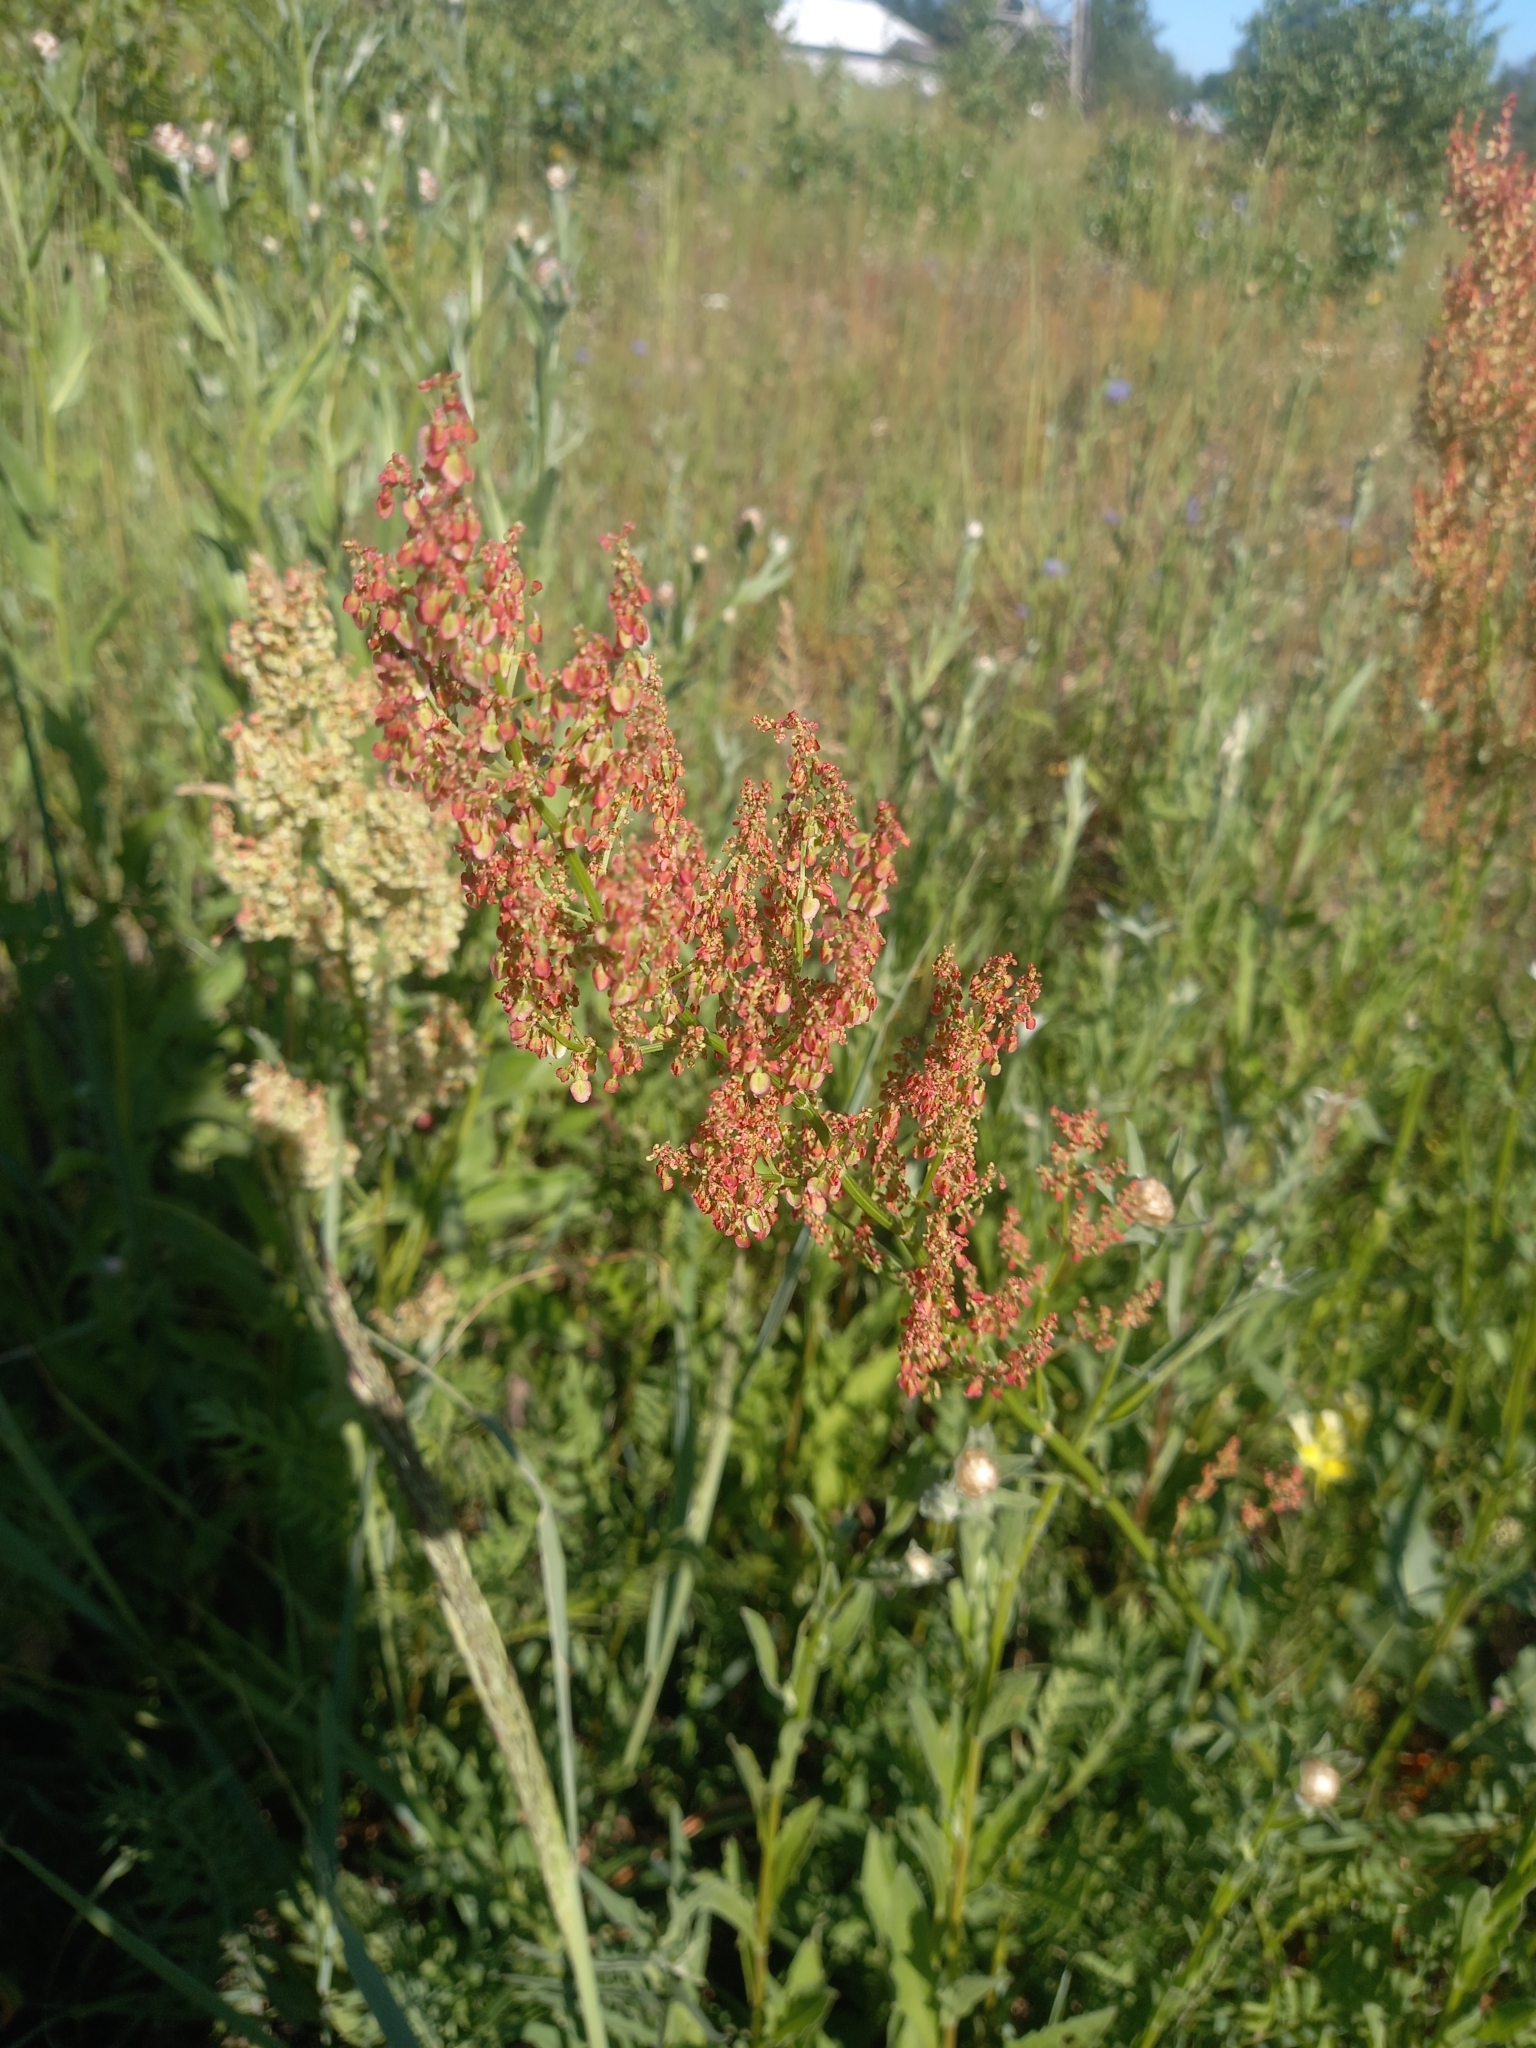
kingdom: Plantae
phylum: Tracheophyta
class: Magnoliopsida
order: Caryophyllales
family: Polygonaceae
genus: Rumex
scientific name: Rumex thyrsiflorus
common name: Garden sorrel
